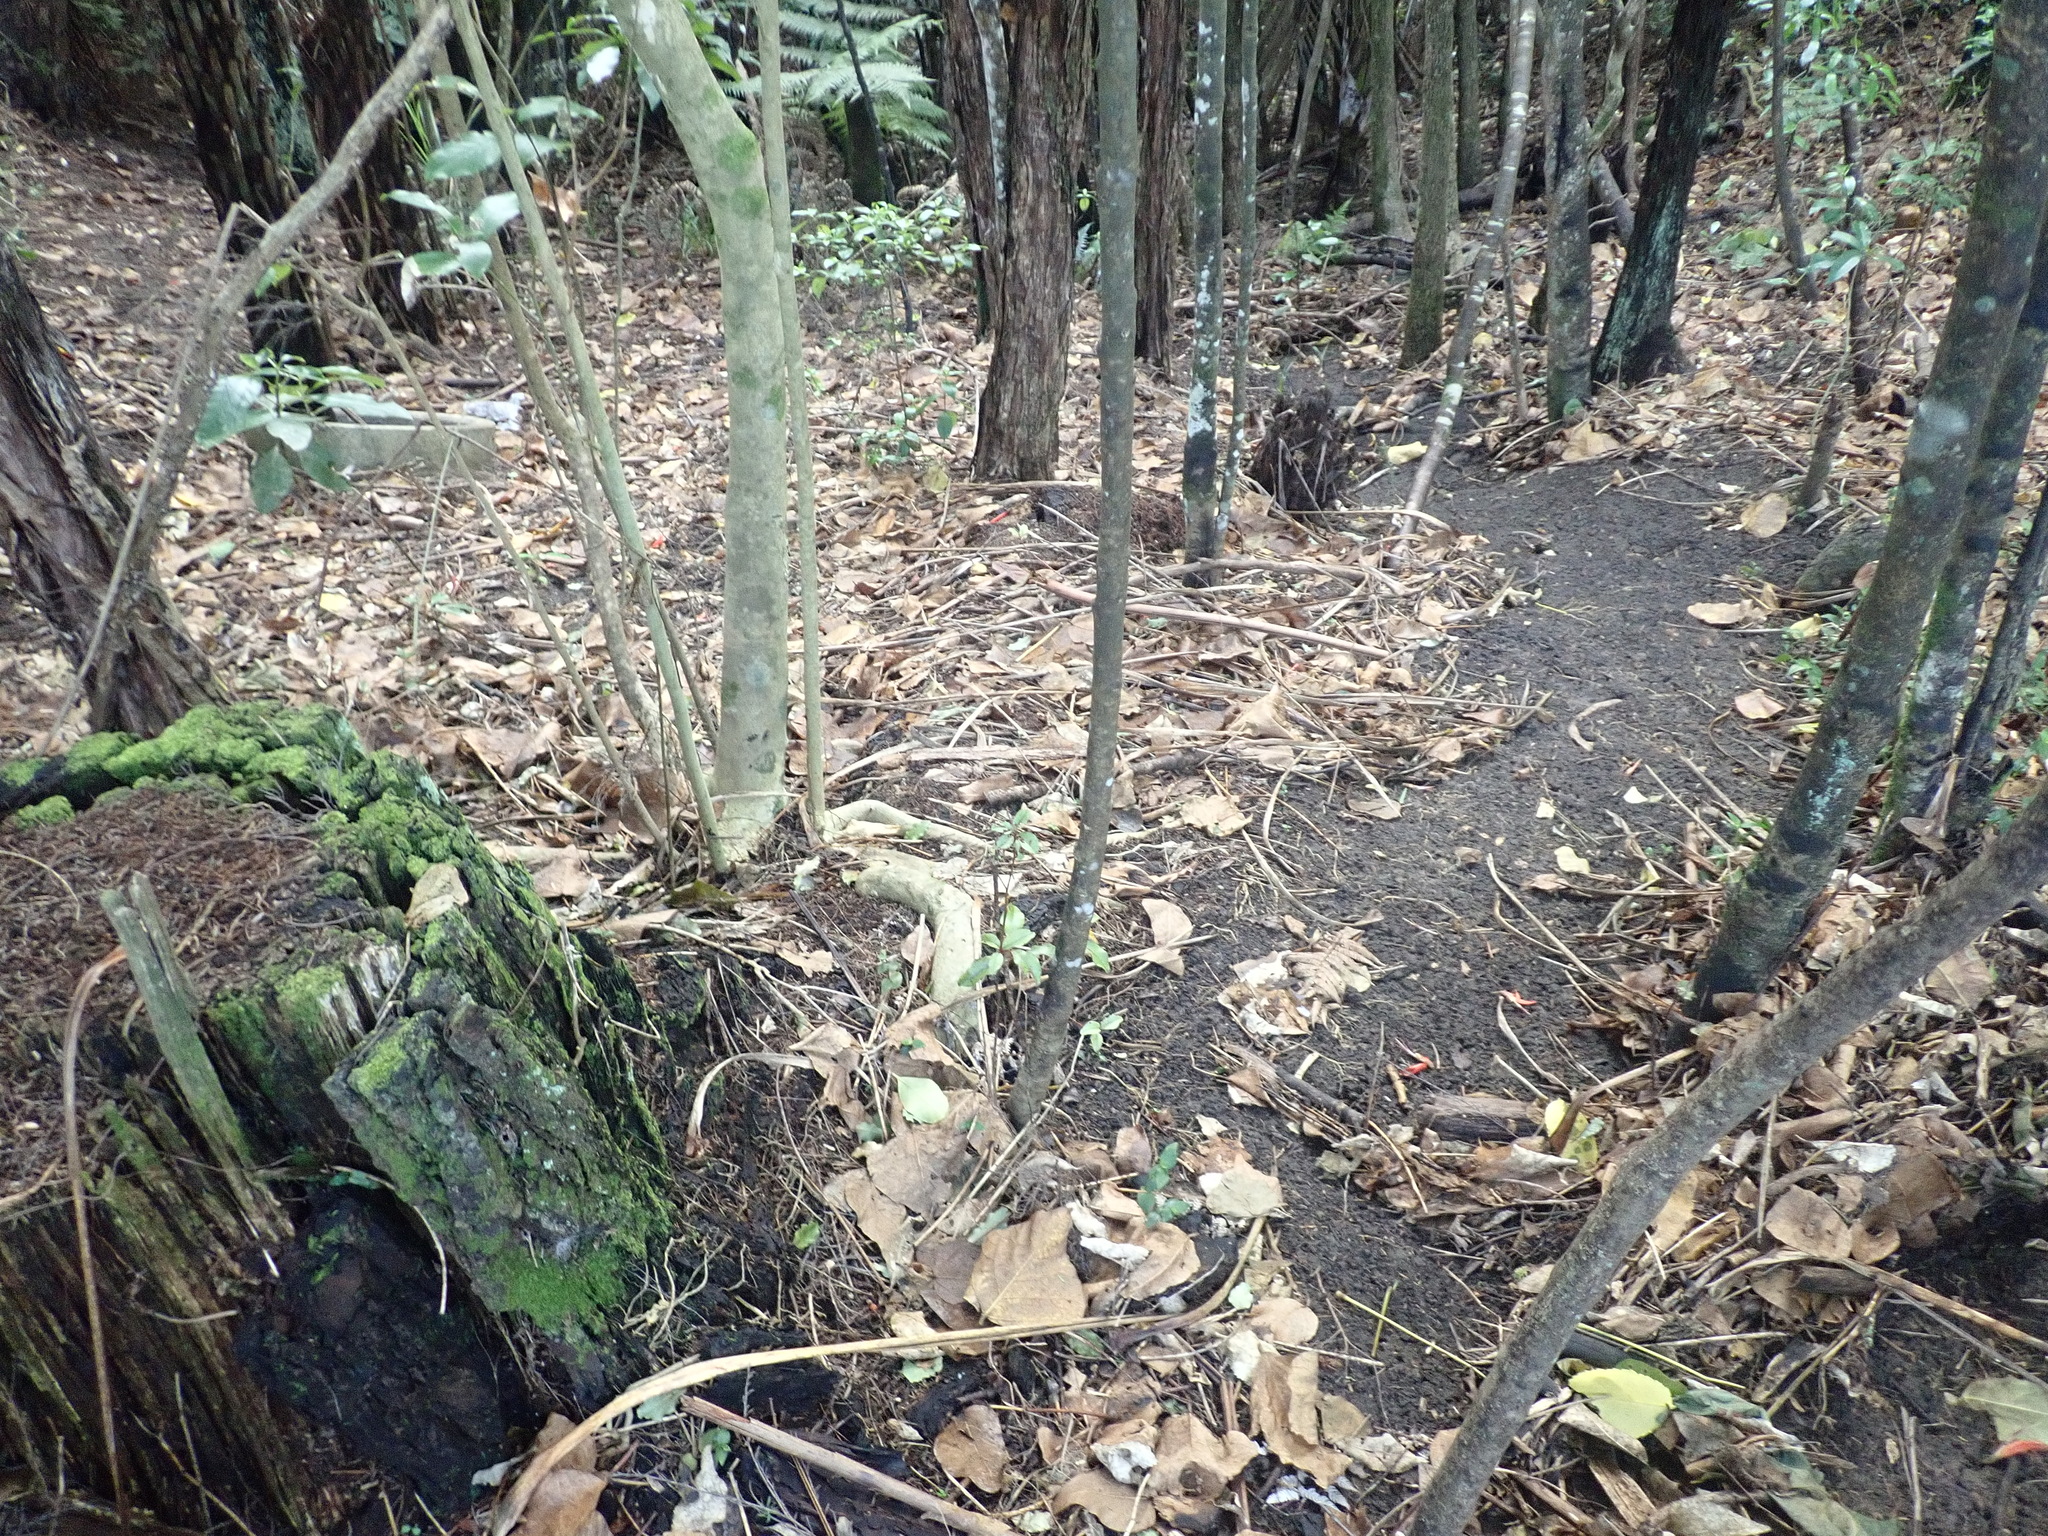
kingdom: Plantae
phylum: Tracheophyta
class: Magnoliopsida
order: Malpighiales
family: Violaceae
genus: Melicytus
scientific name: Melicytus ramiflorus
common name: Mahoe
